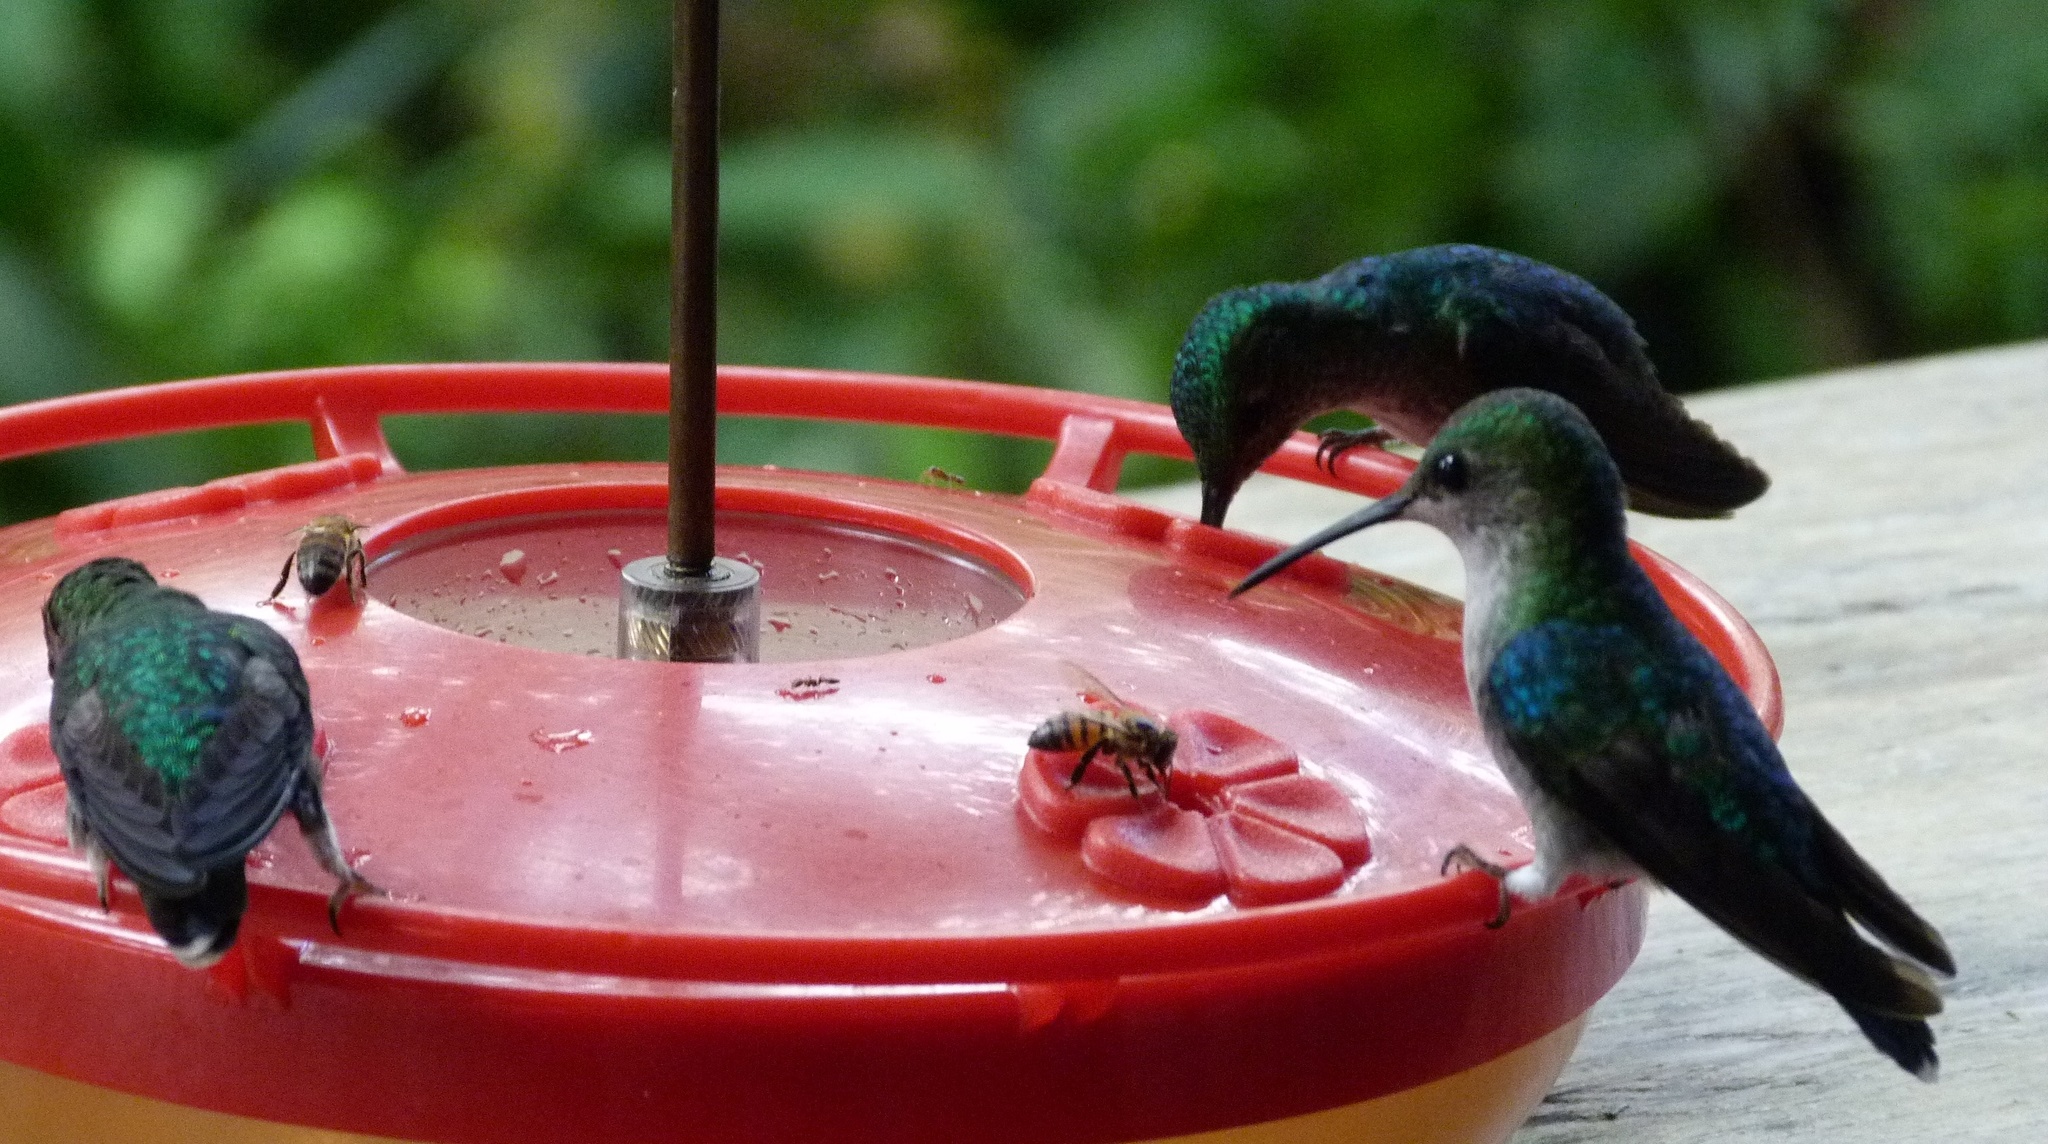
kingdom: Animalia
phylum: Chordata
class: Aves
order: Apodiformes
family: Trochilidae
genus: Polyerata
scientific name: Polyerata amabilis
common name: Blue-chested hummingbird
